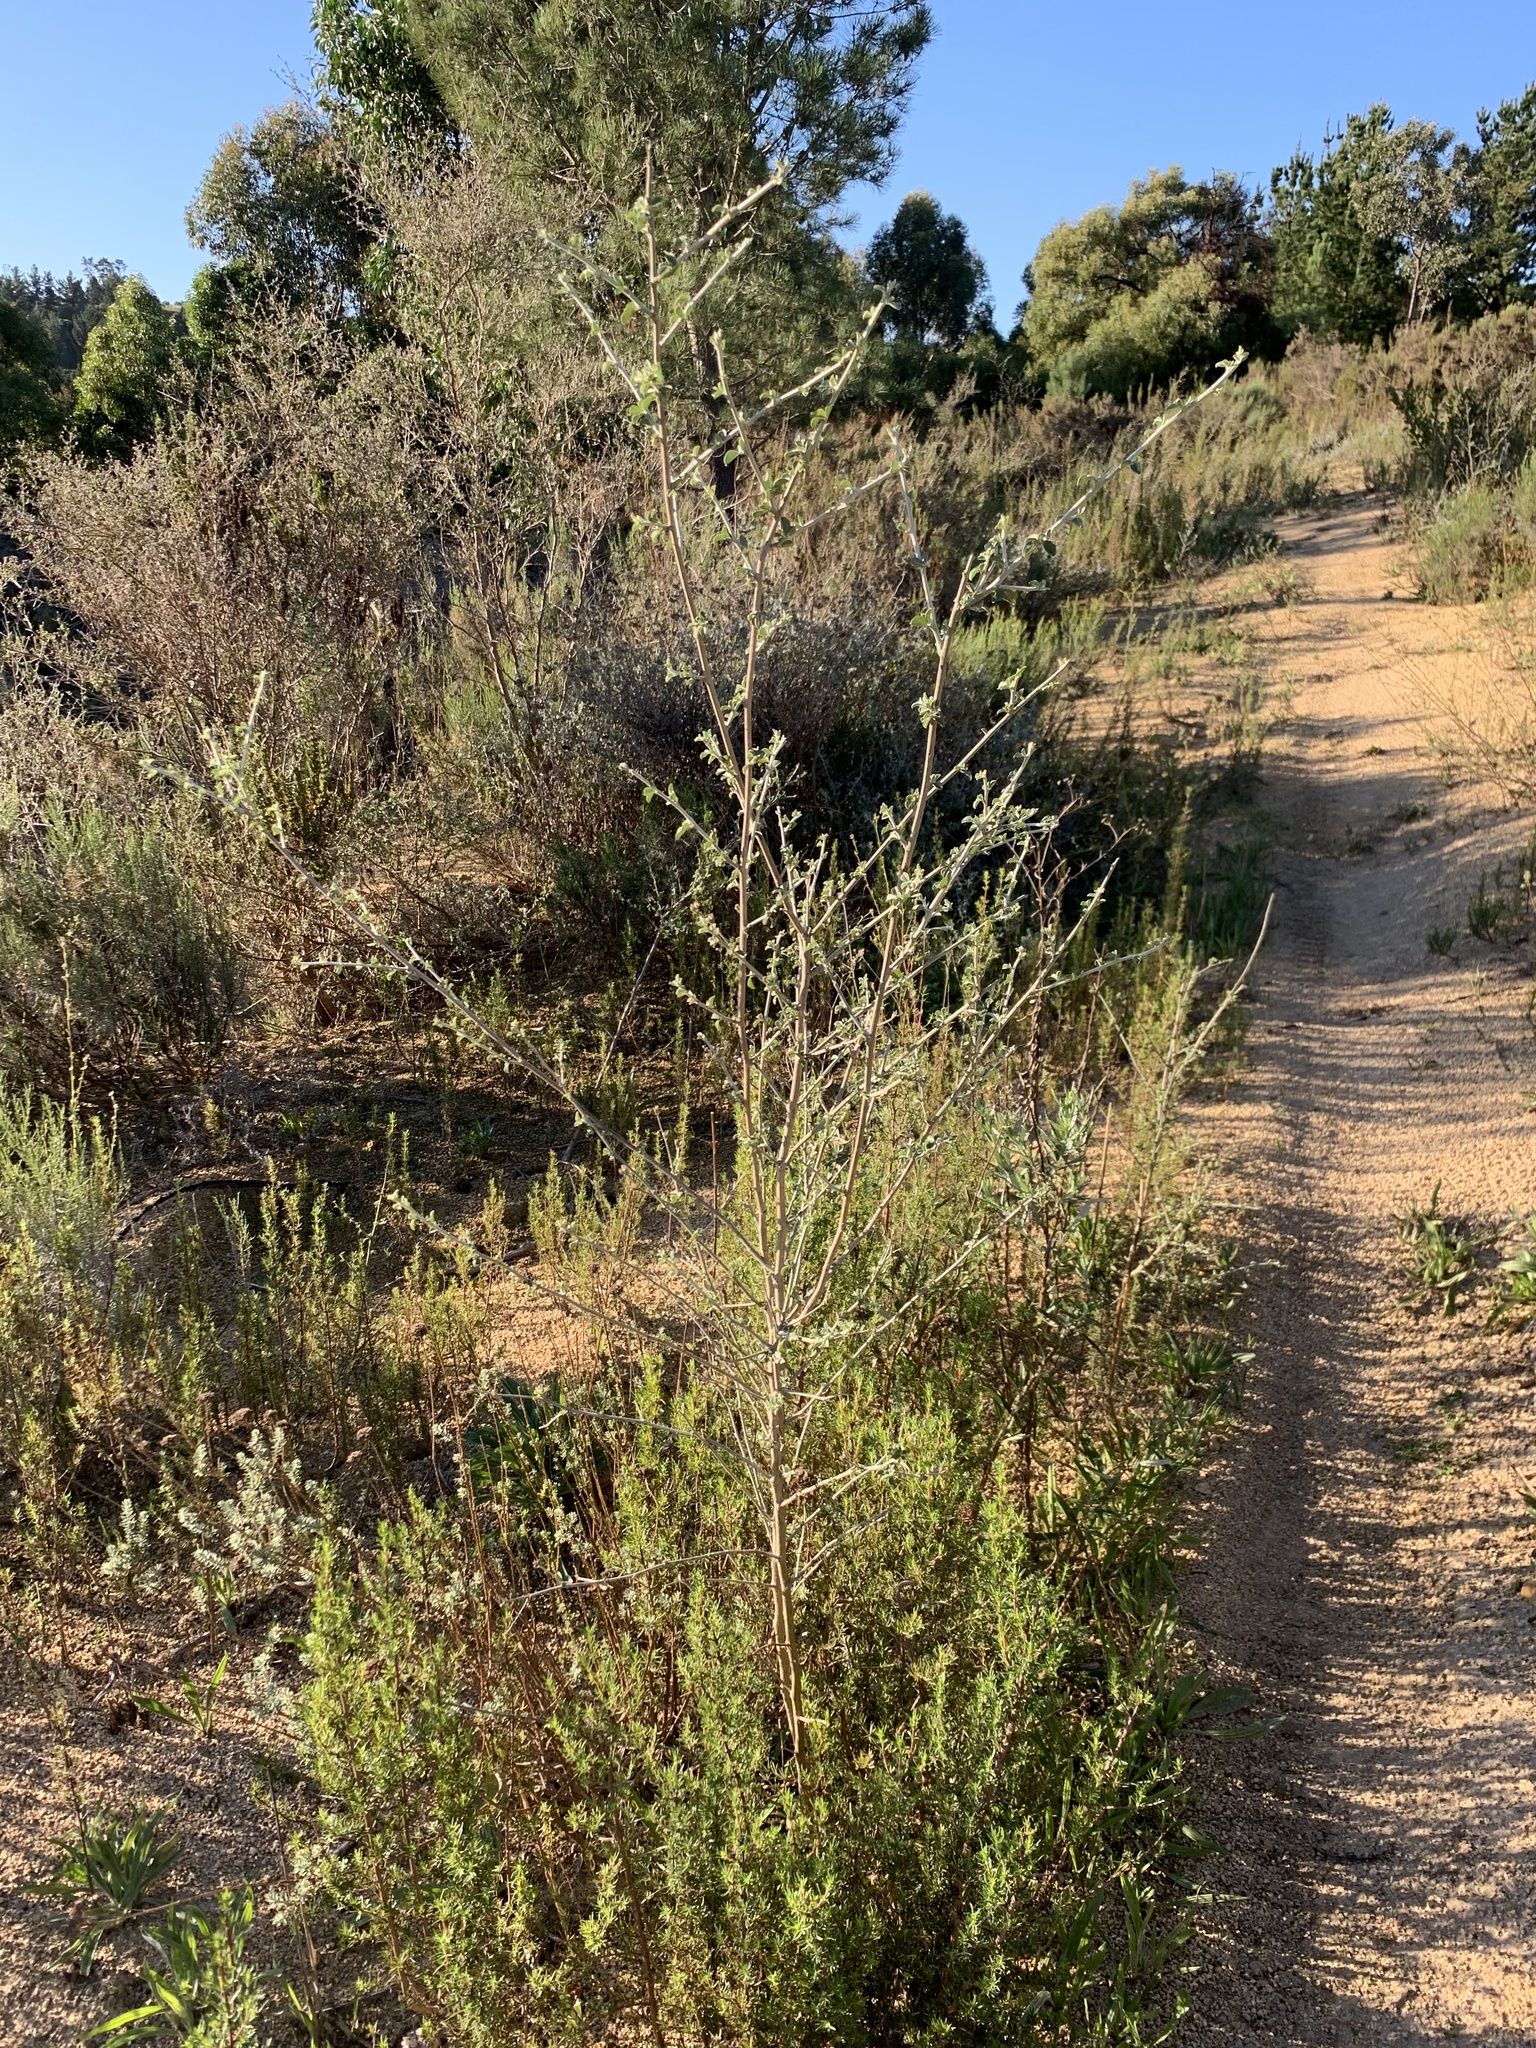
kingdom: Plantae
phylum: Tracheophyta
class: Magnoliopsida
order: Fabales
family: Fabaceae
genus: Psoralea
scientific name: Psoralea hirta
